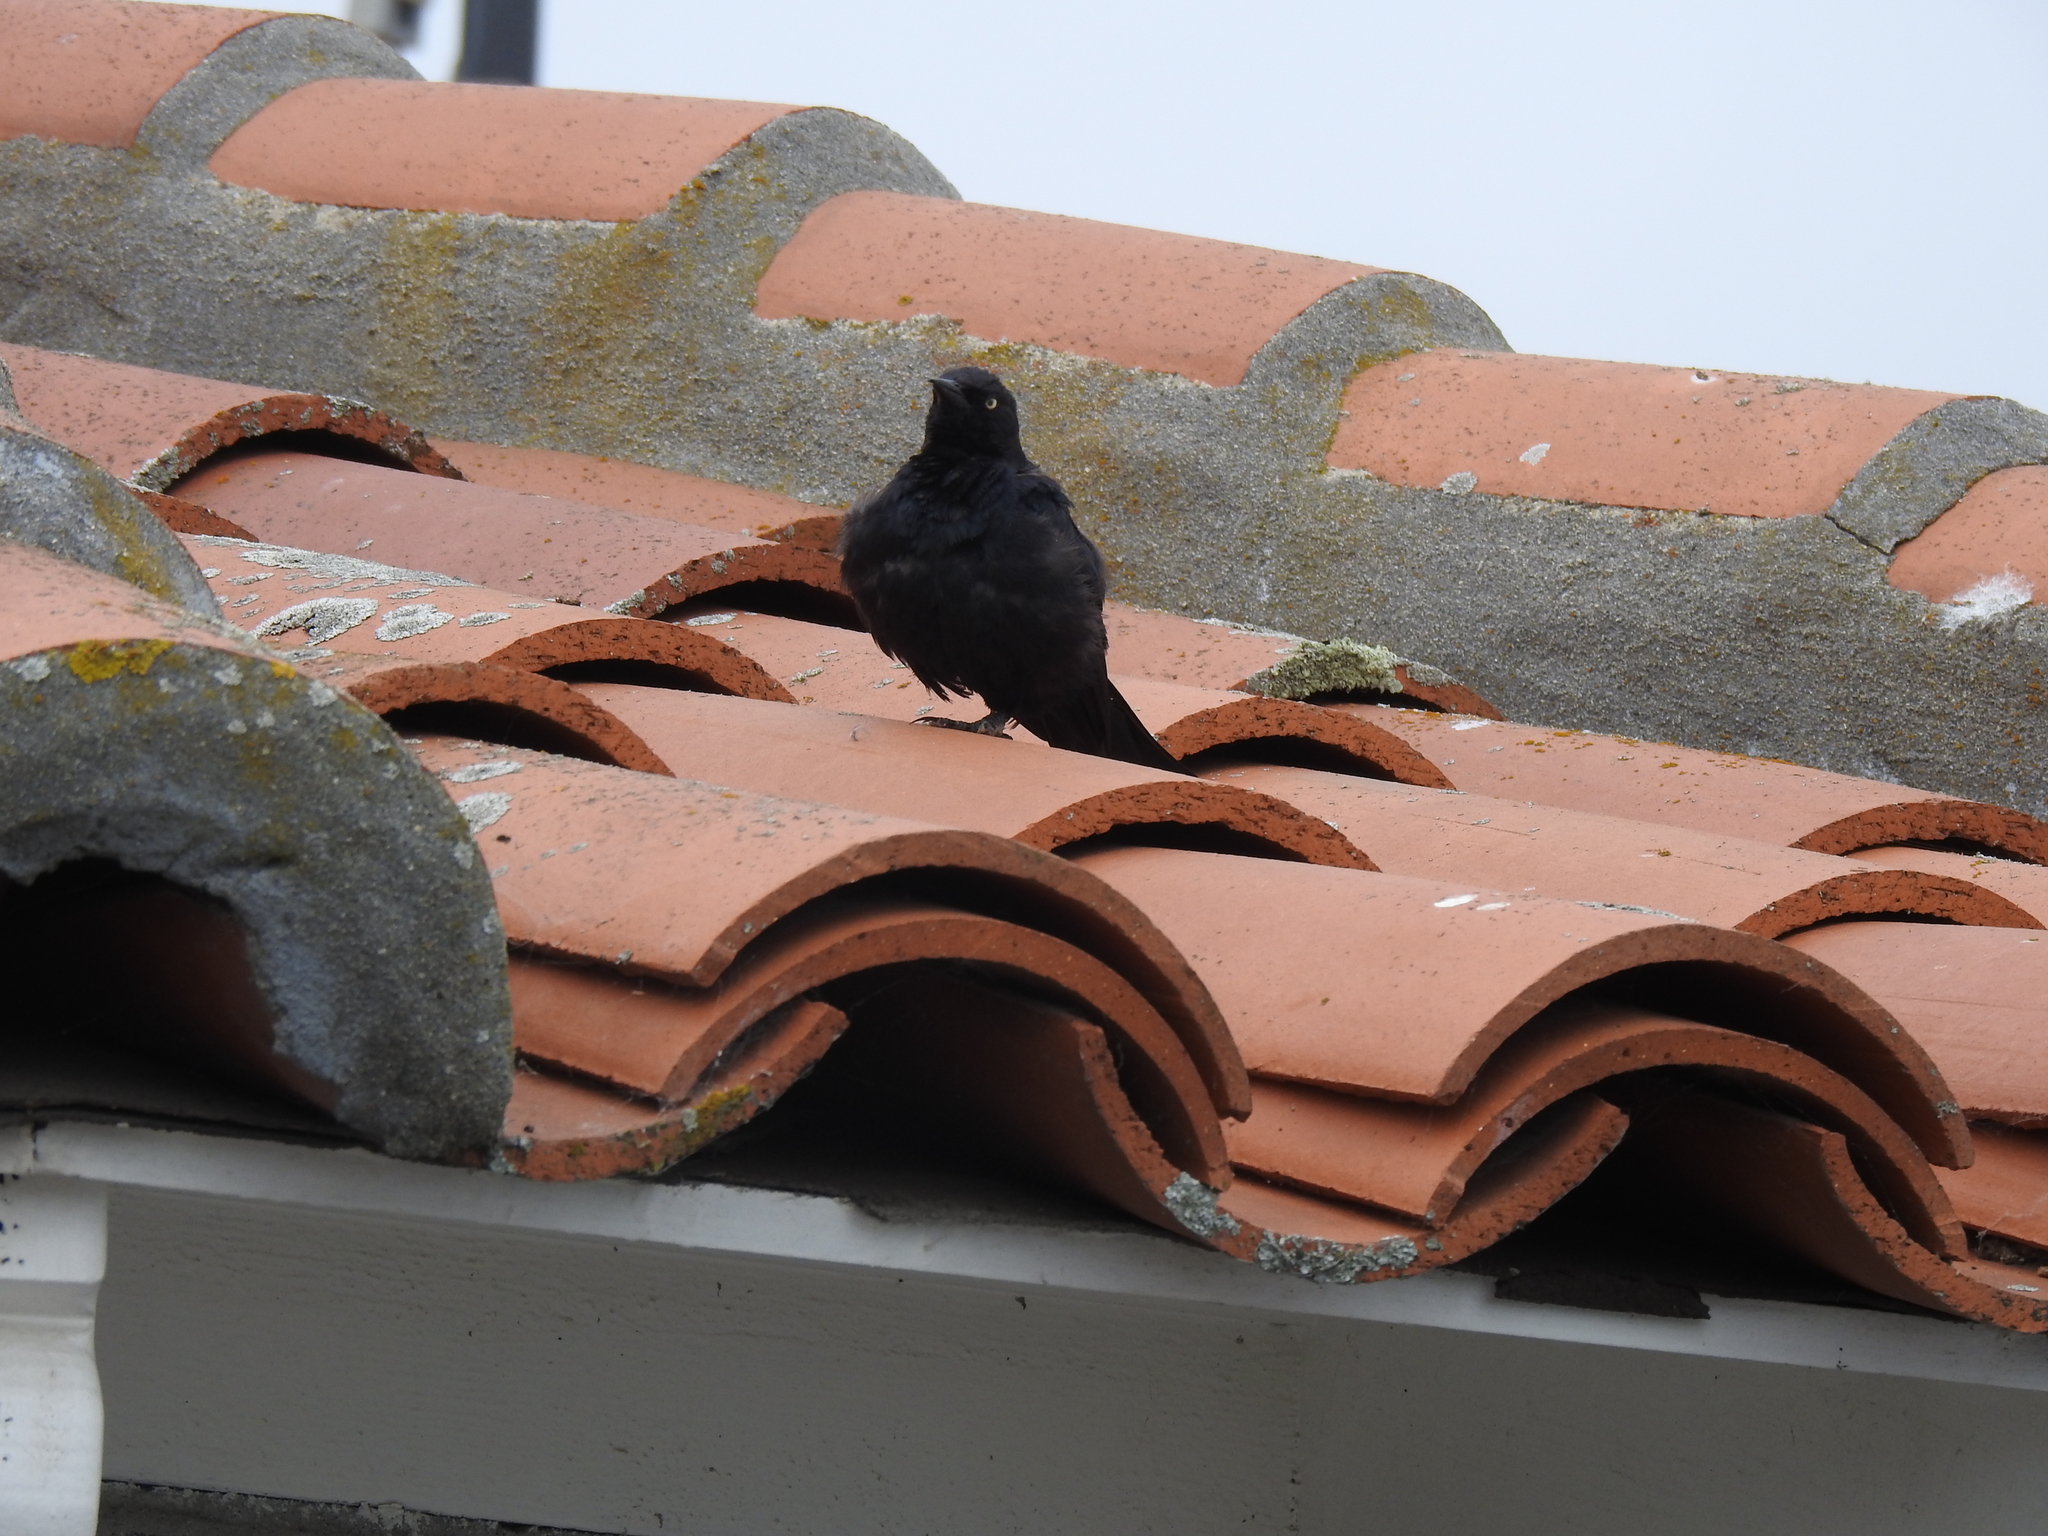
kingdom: Animalia
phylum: Chordata
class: Aves
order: Passeriformes
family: Icteridae
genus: Euphagus
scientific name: Euphagus cyanocephalus
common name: Brewer's blackbird
